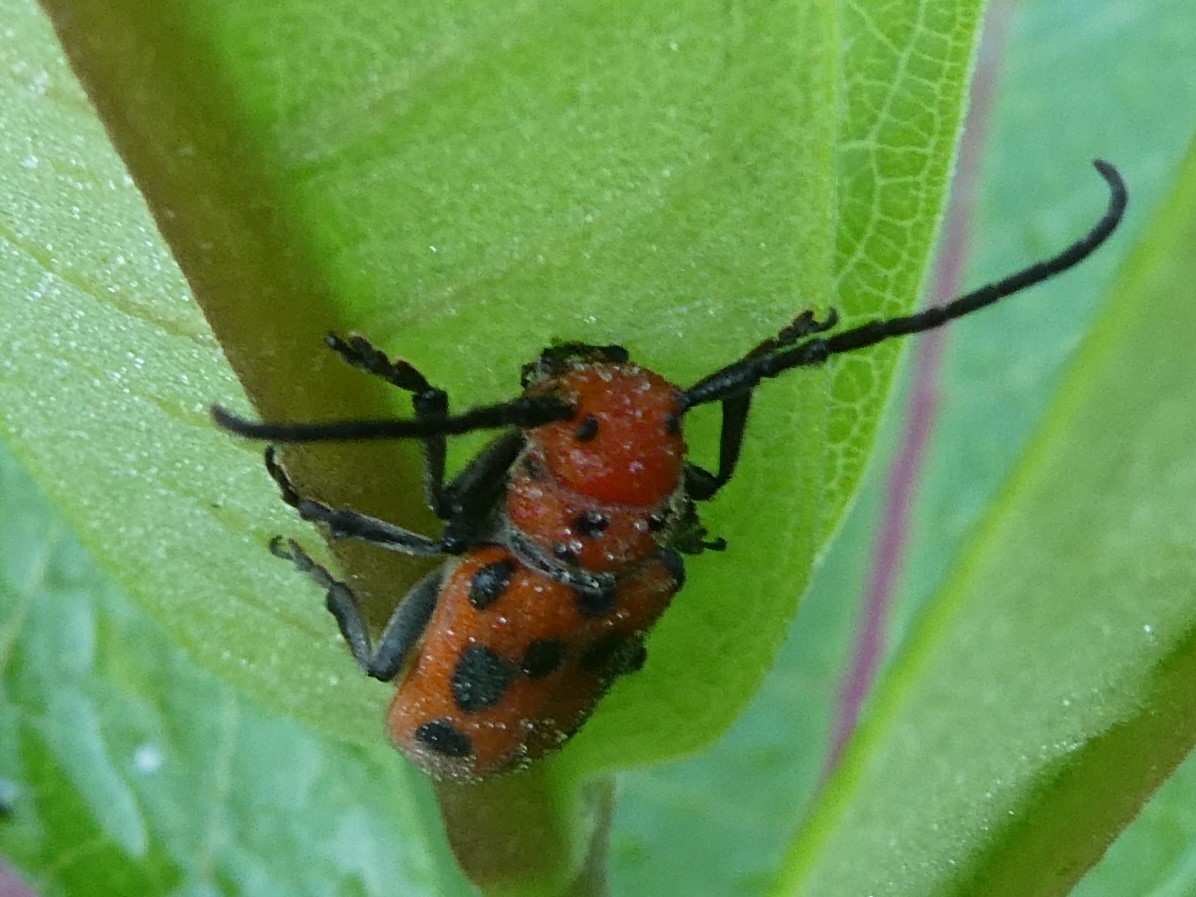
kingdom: Animalia
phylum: Arthropoda
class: Insecta
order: Coleoptera
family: Cerambycidae
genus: Tetraopes
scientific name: Tetraopes tetrophthalmus
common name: Red milkweed beetle
